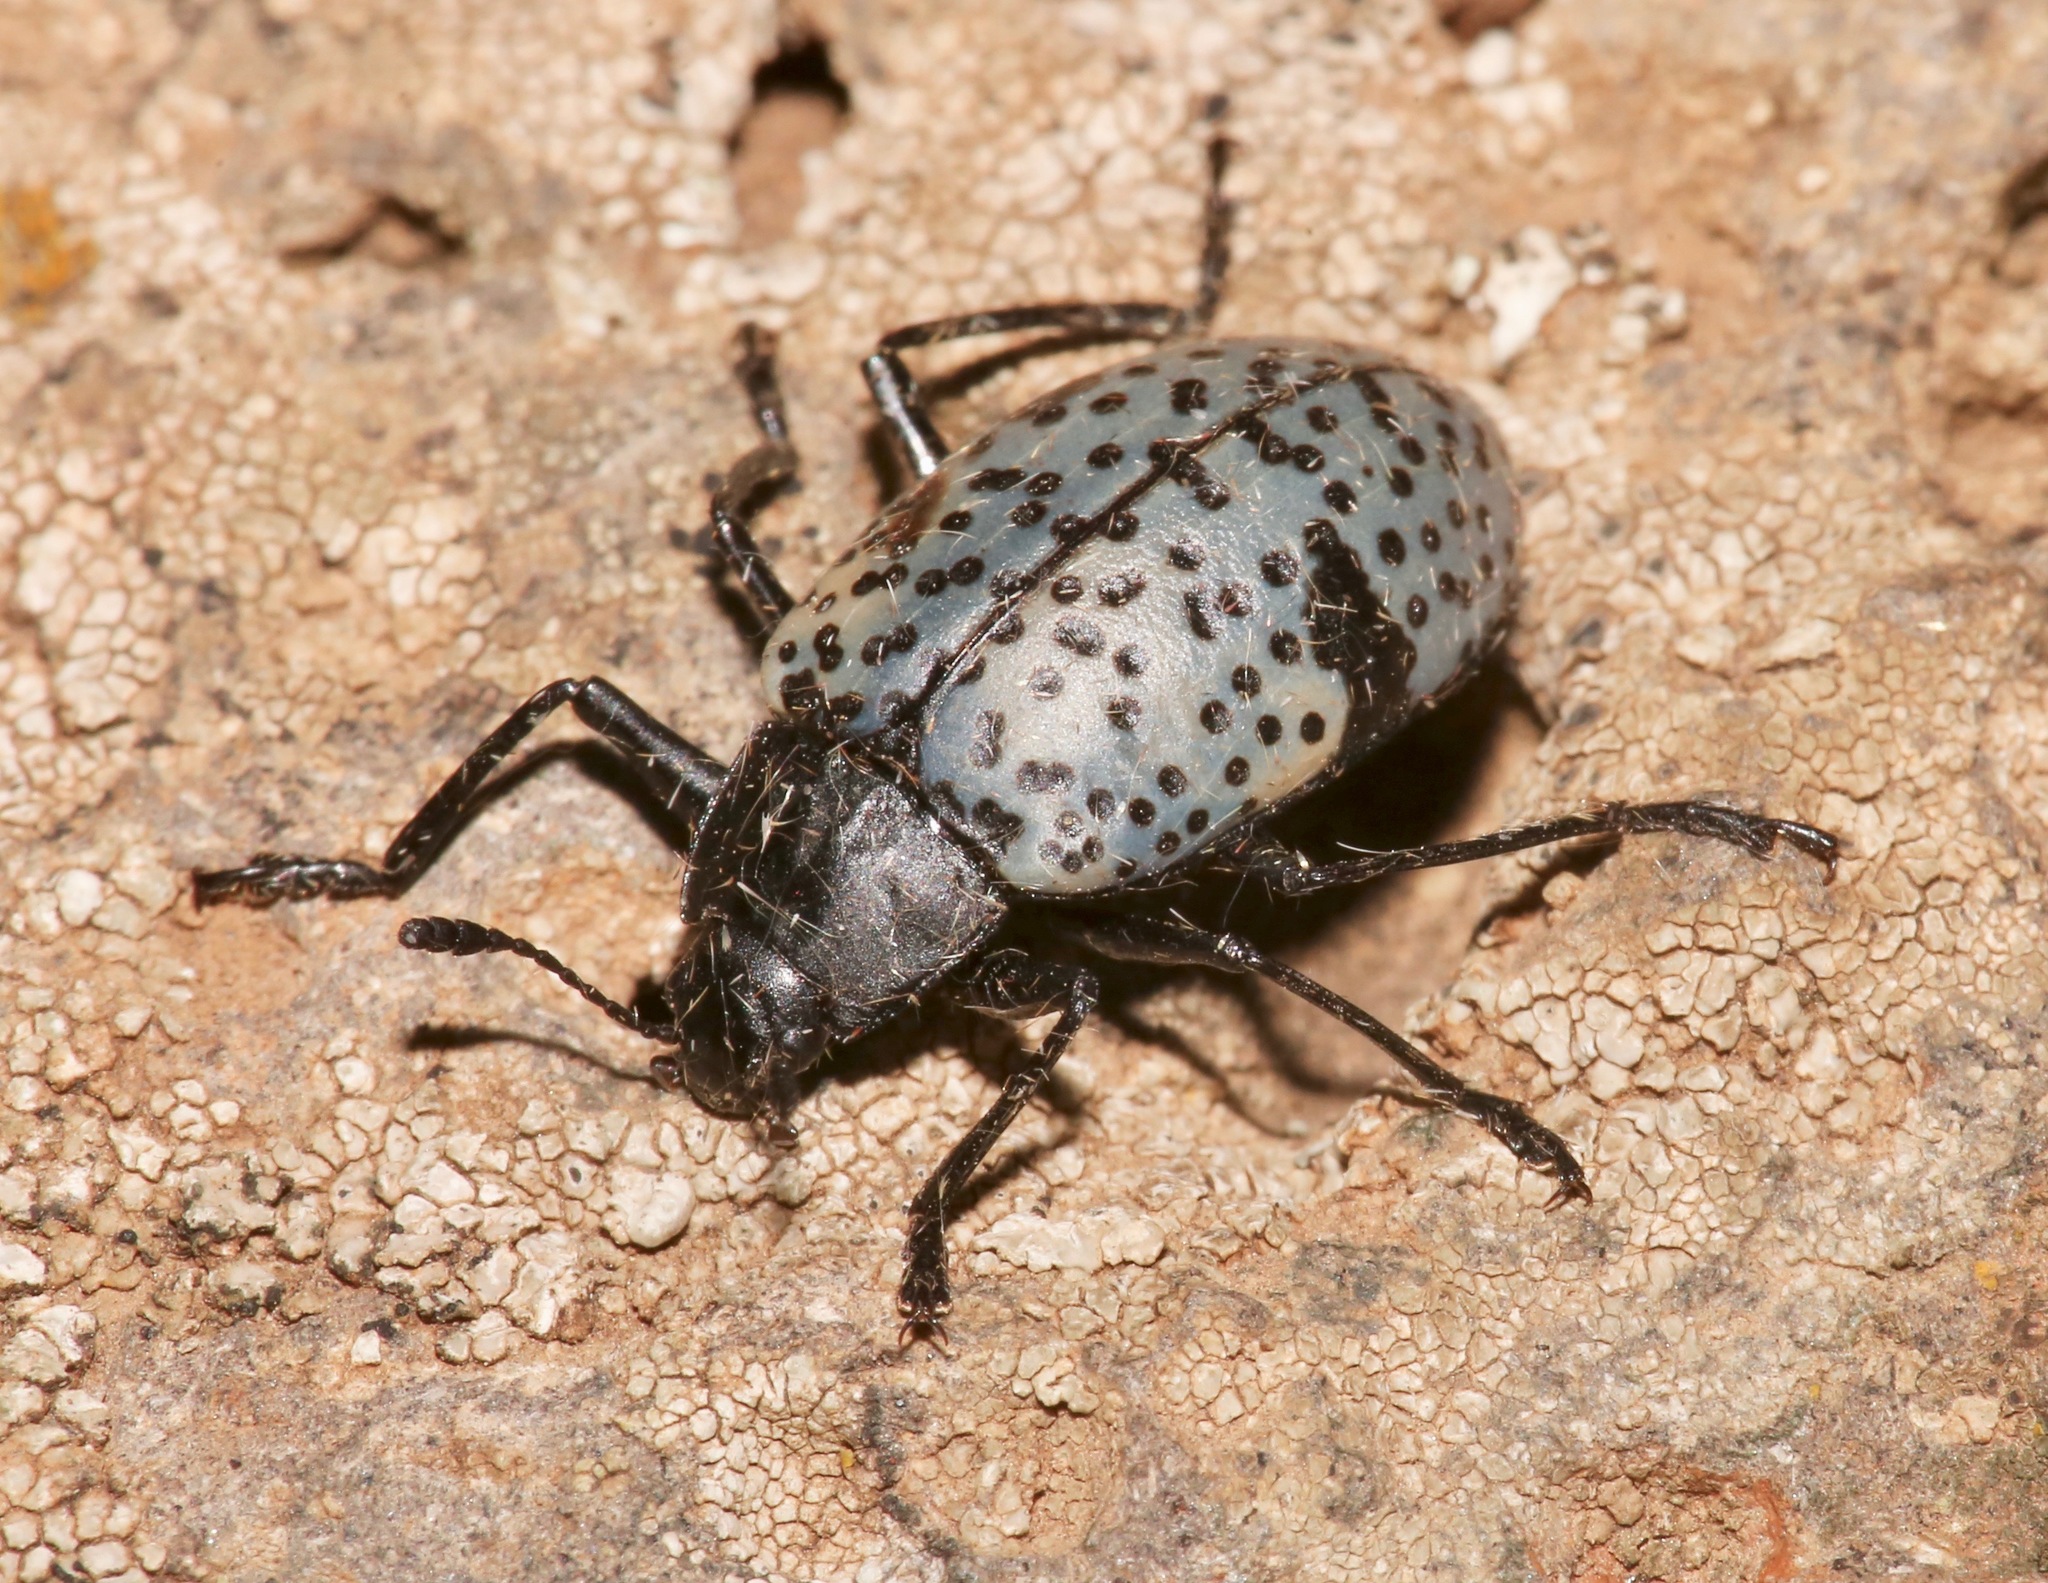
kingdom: Animalia
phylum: Arthropoda
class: Insecta
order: Coleoptera
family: Erotylidae
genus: Gibbifer
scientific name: Gibbifer californicus
